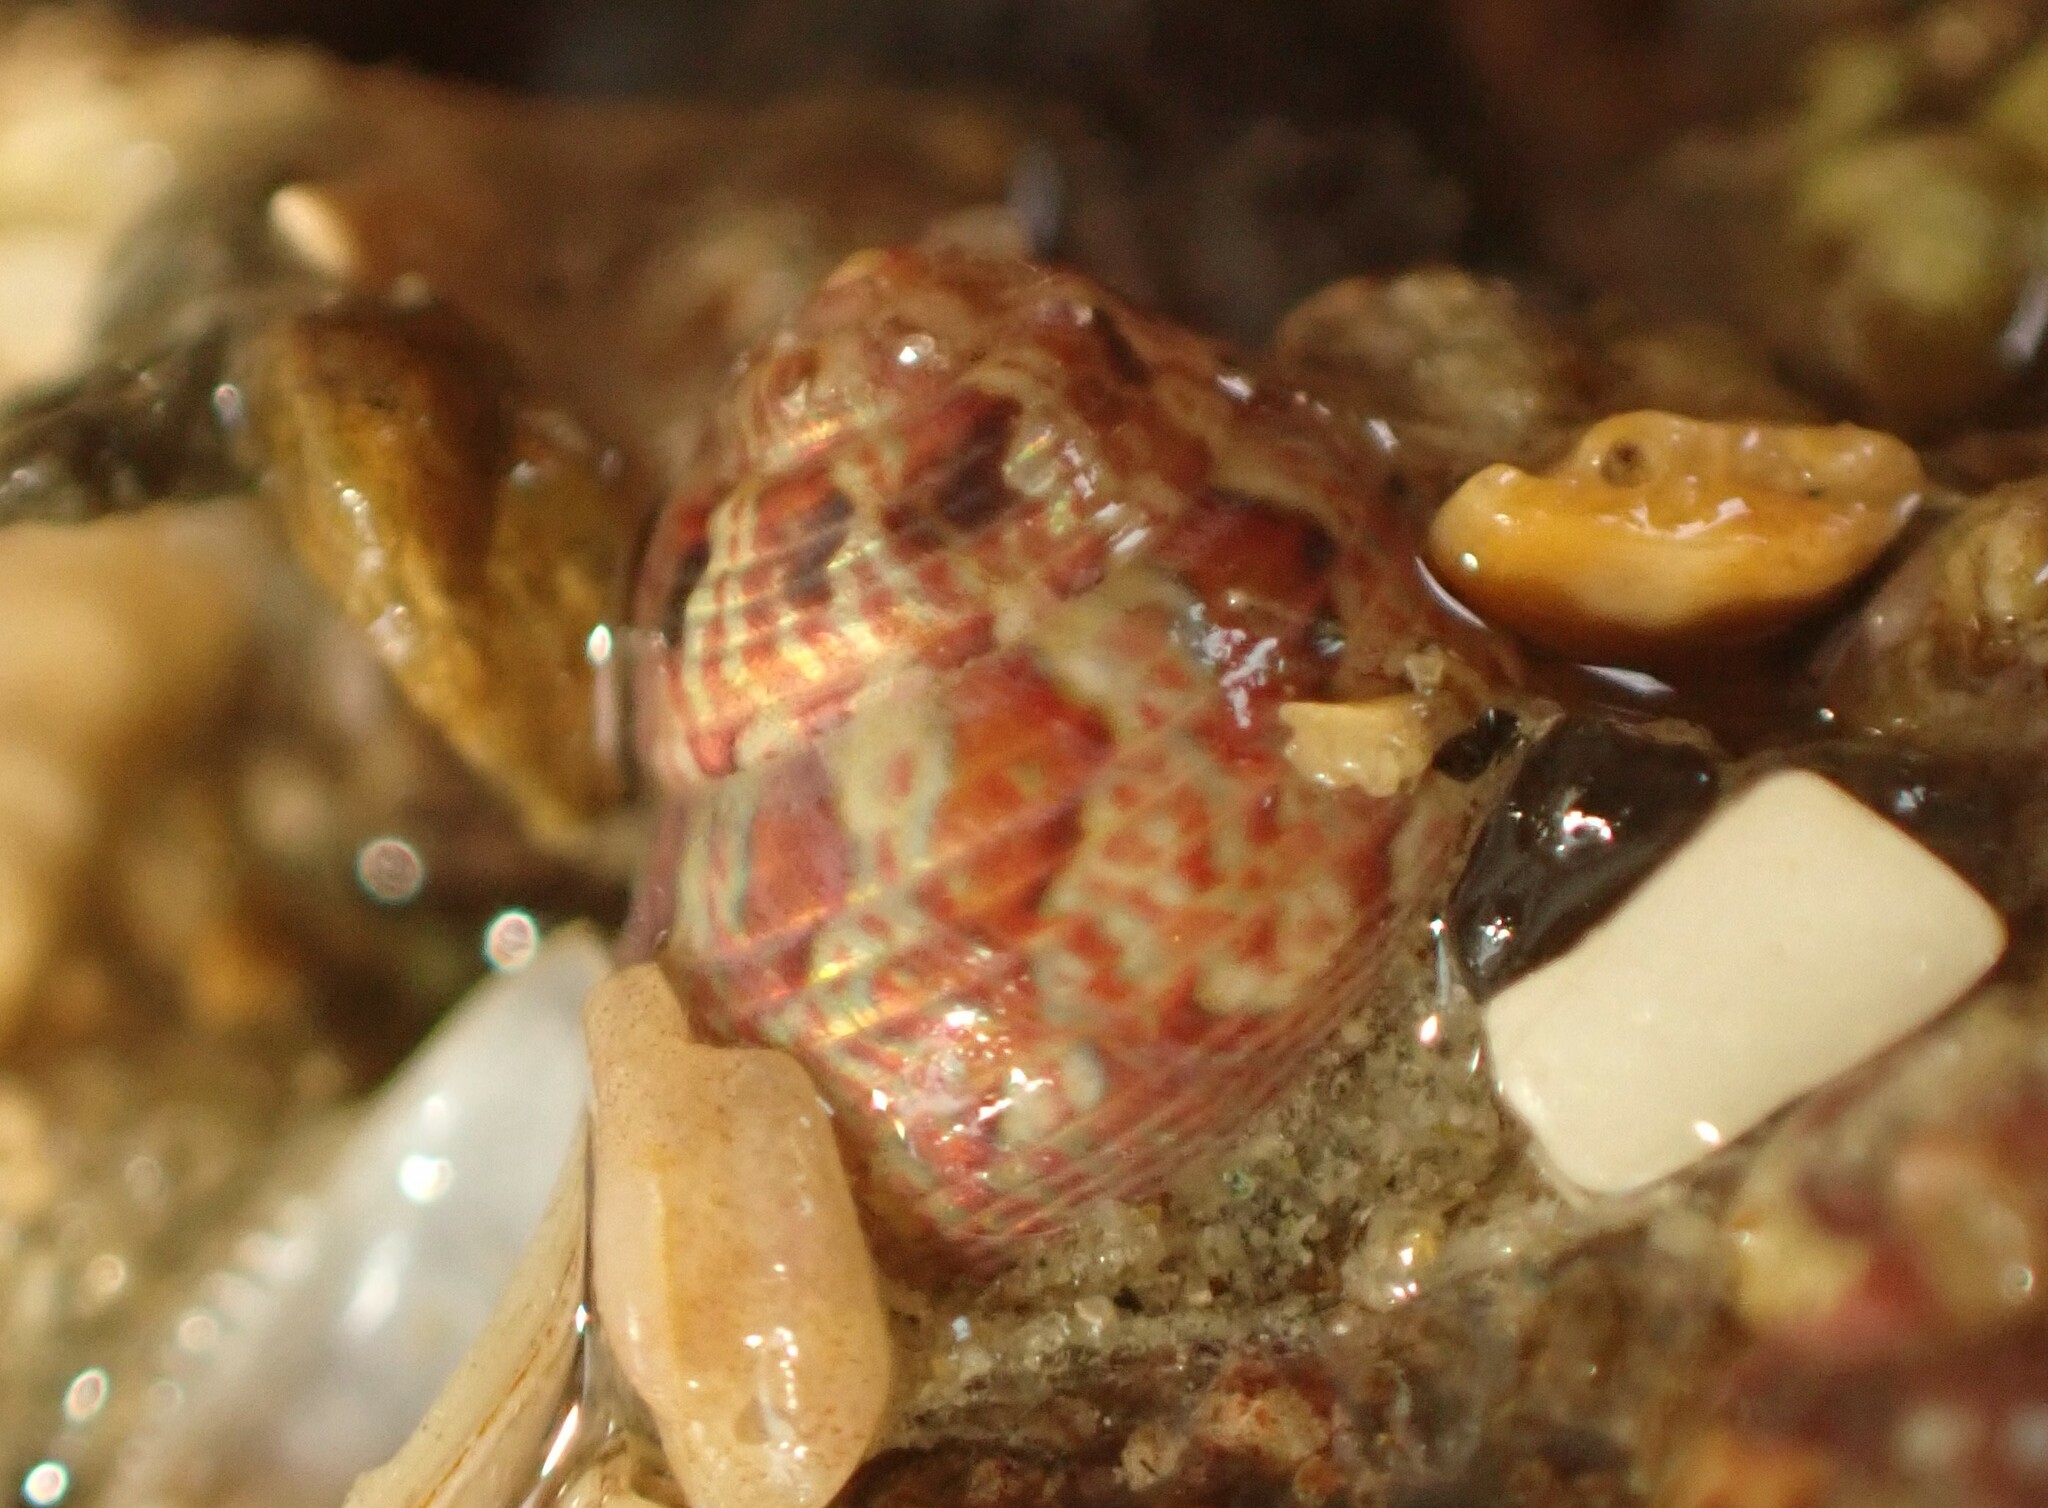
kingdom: Animalia
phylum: Mollusca
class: Gastropoda
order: Trochida
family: Trochidae
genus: Micrelenchus
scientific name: Micrelenchus sanguineus
